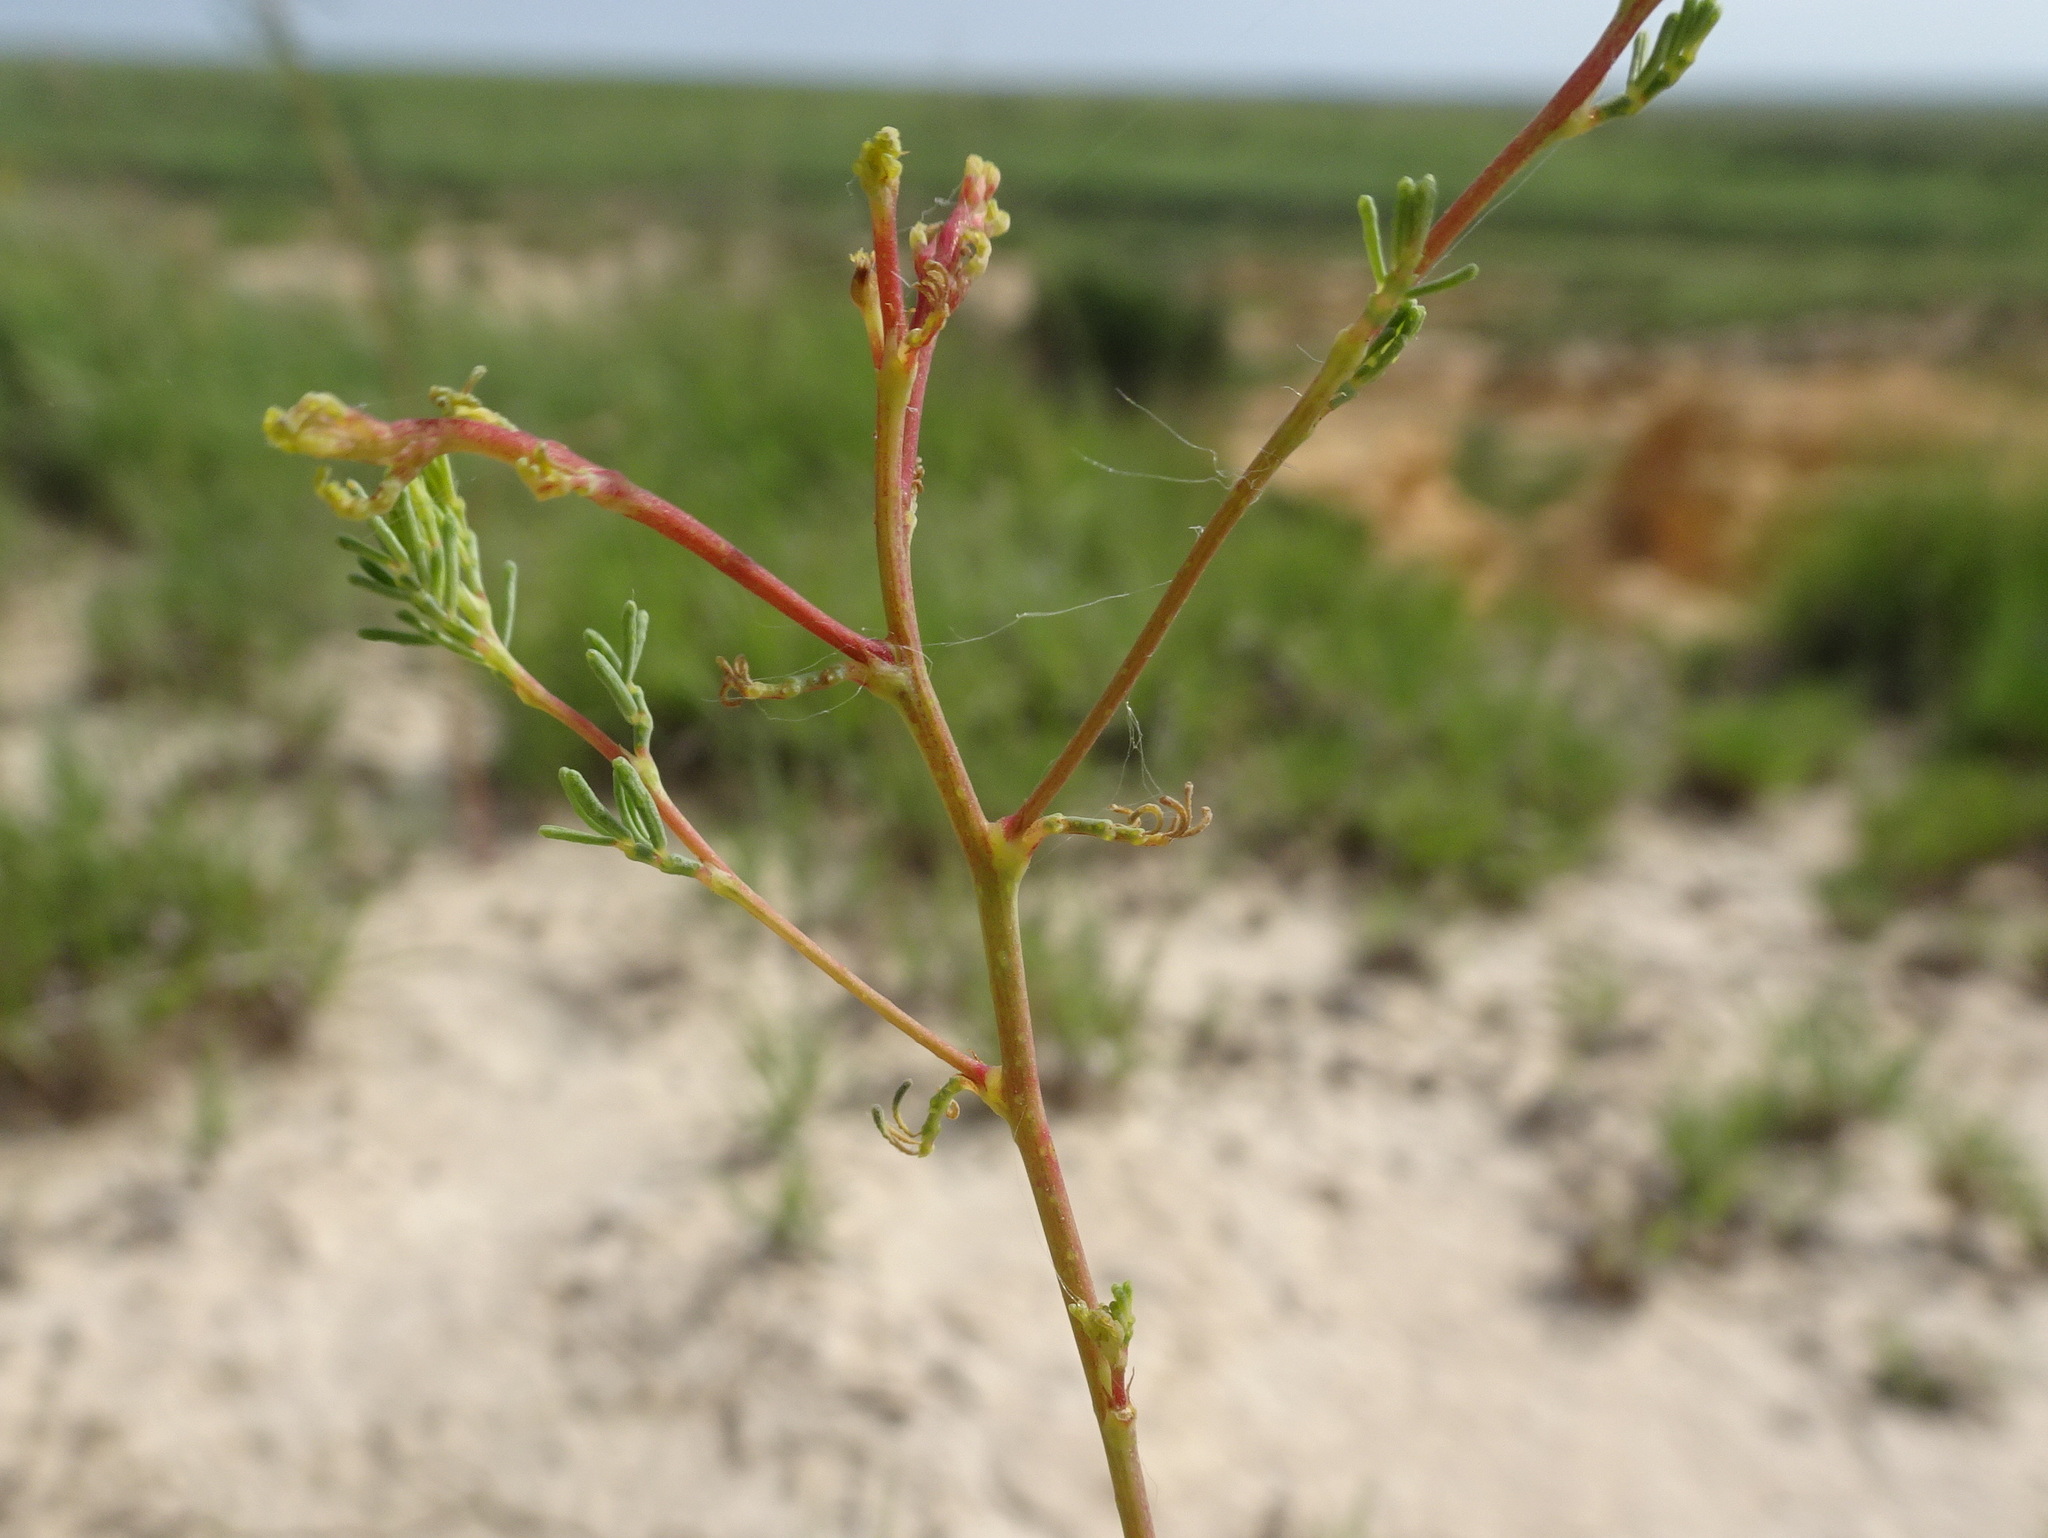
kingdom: Plantae
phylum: Tracheophyta
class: Magnoliopsida
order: Fabales
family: Fabaceae
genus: Dalea
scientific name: Dalea enneandra
